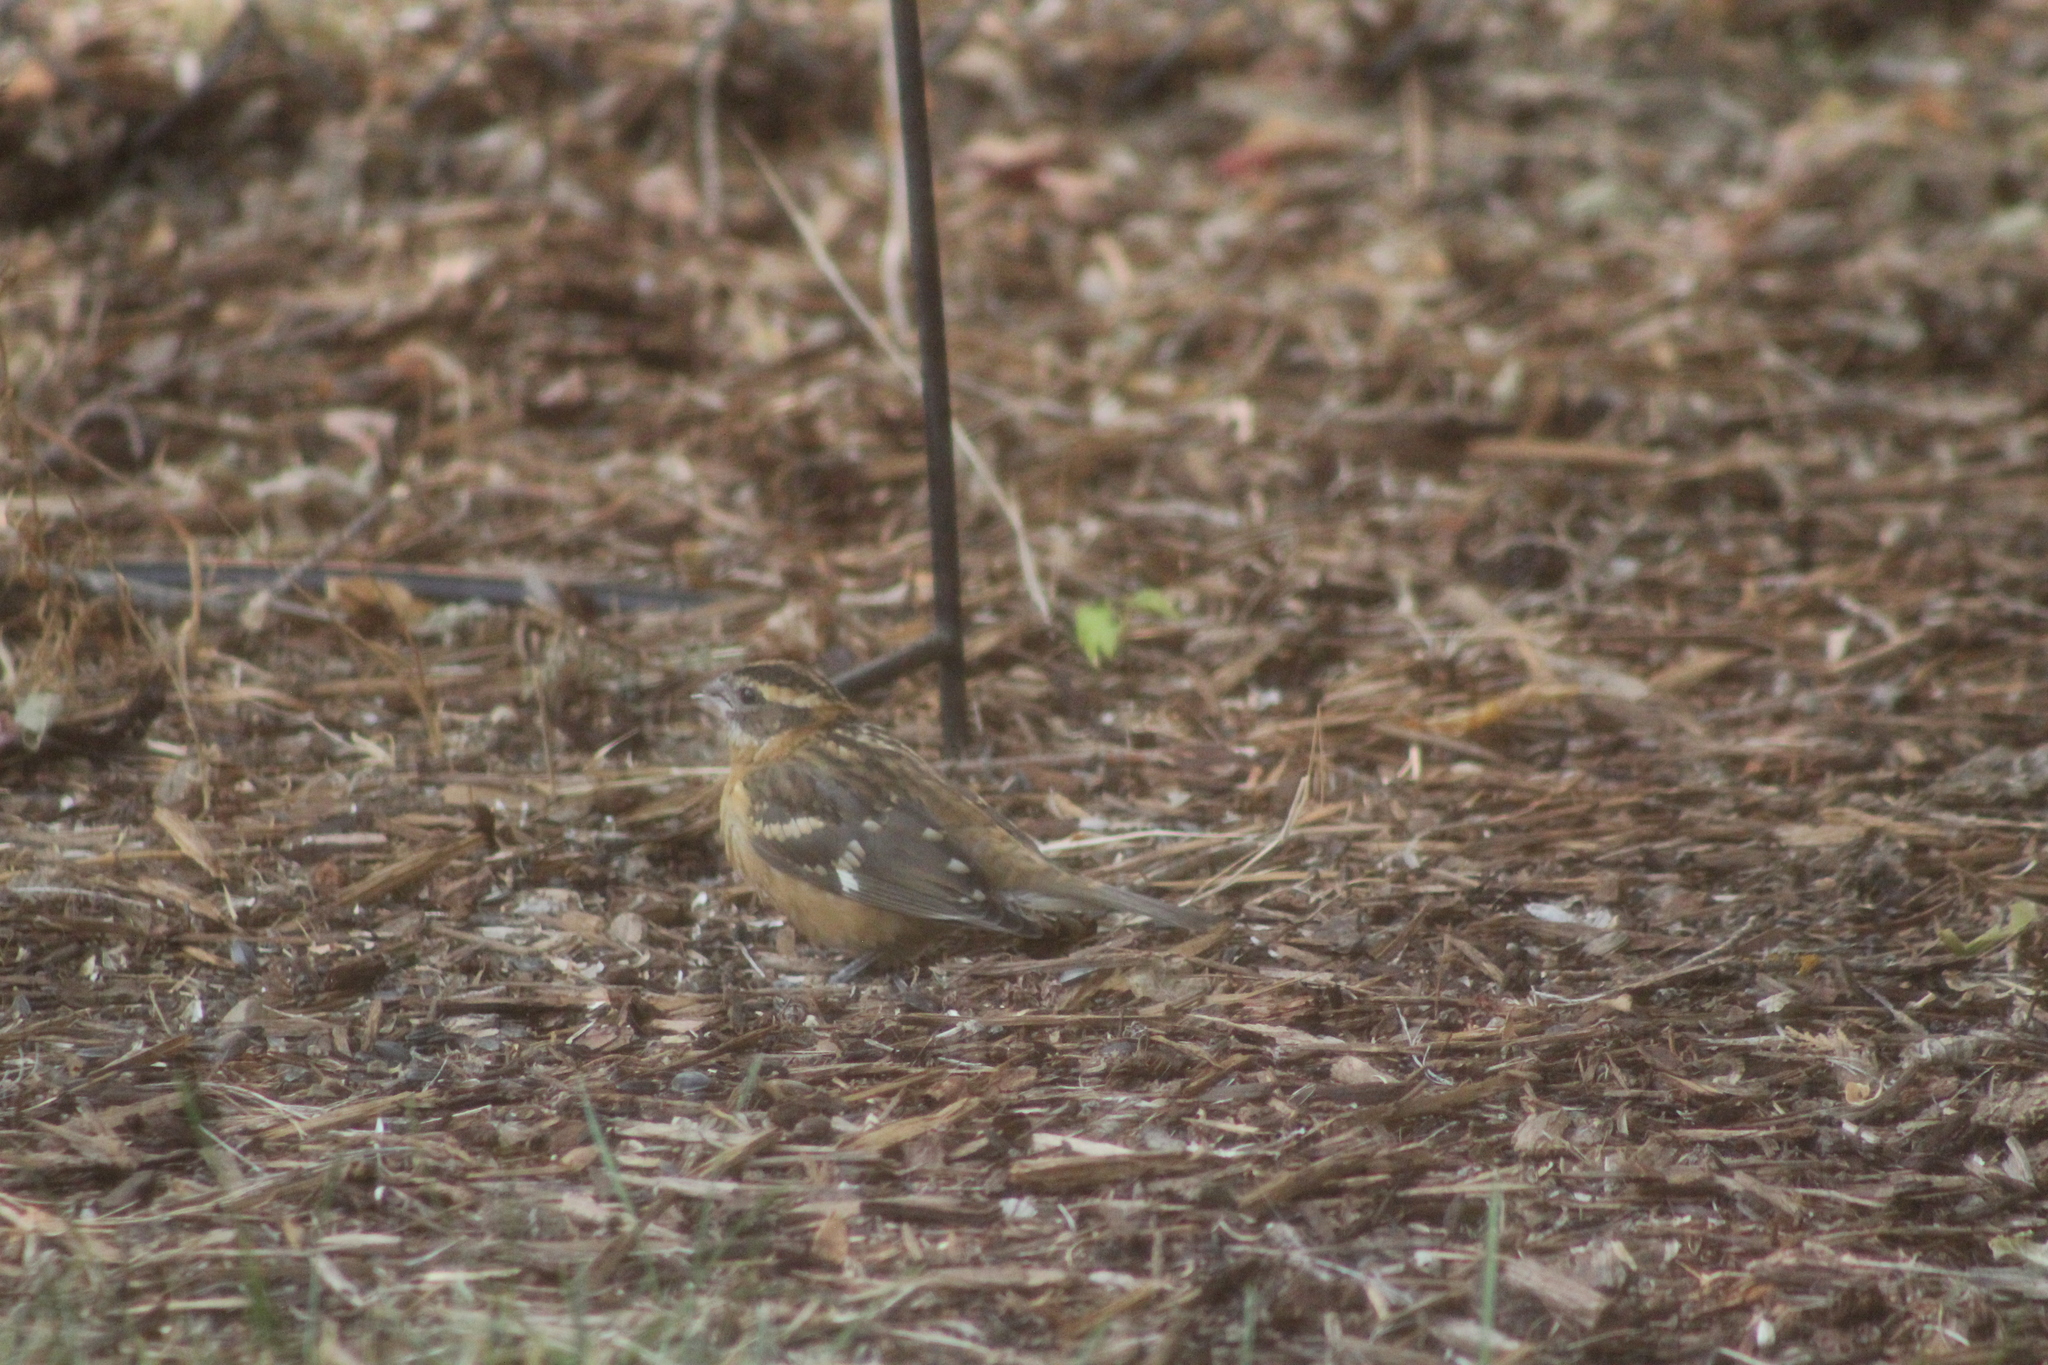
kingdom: Animalia
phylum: Chordata
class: Aves
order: Passeriformes
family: Cardinalidae
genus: Pheucticus
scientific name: Pheucticus melanocephalus
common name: Black-headed grosbeak
